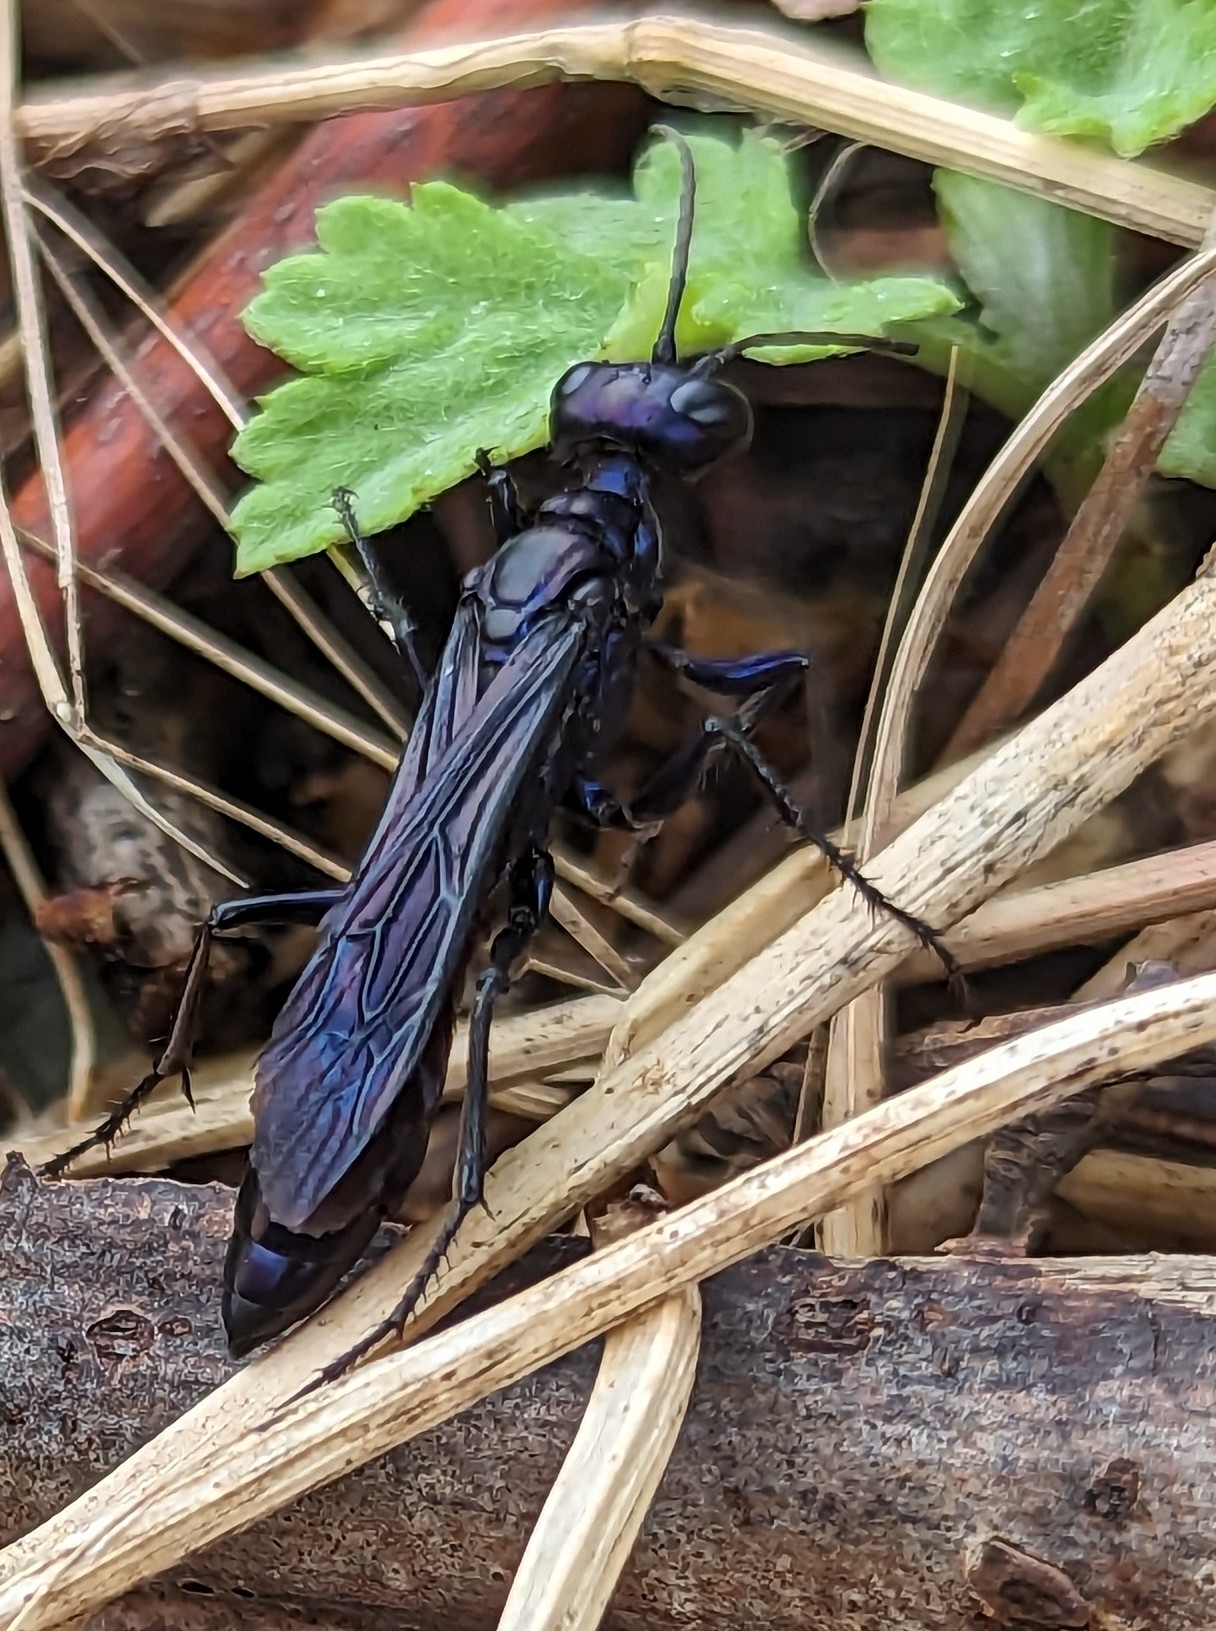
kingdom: Animalia
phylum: Arthropoda
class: Insecta
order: Hymenoptera
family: Sphecidae
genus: Chlorion
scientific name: Chlorion aerarium
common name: Steel-blue cricket hunter
